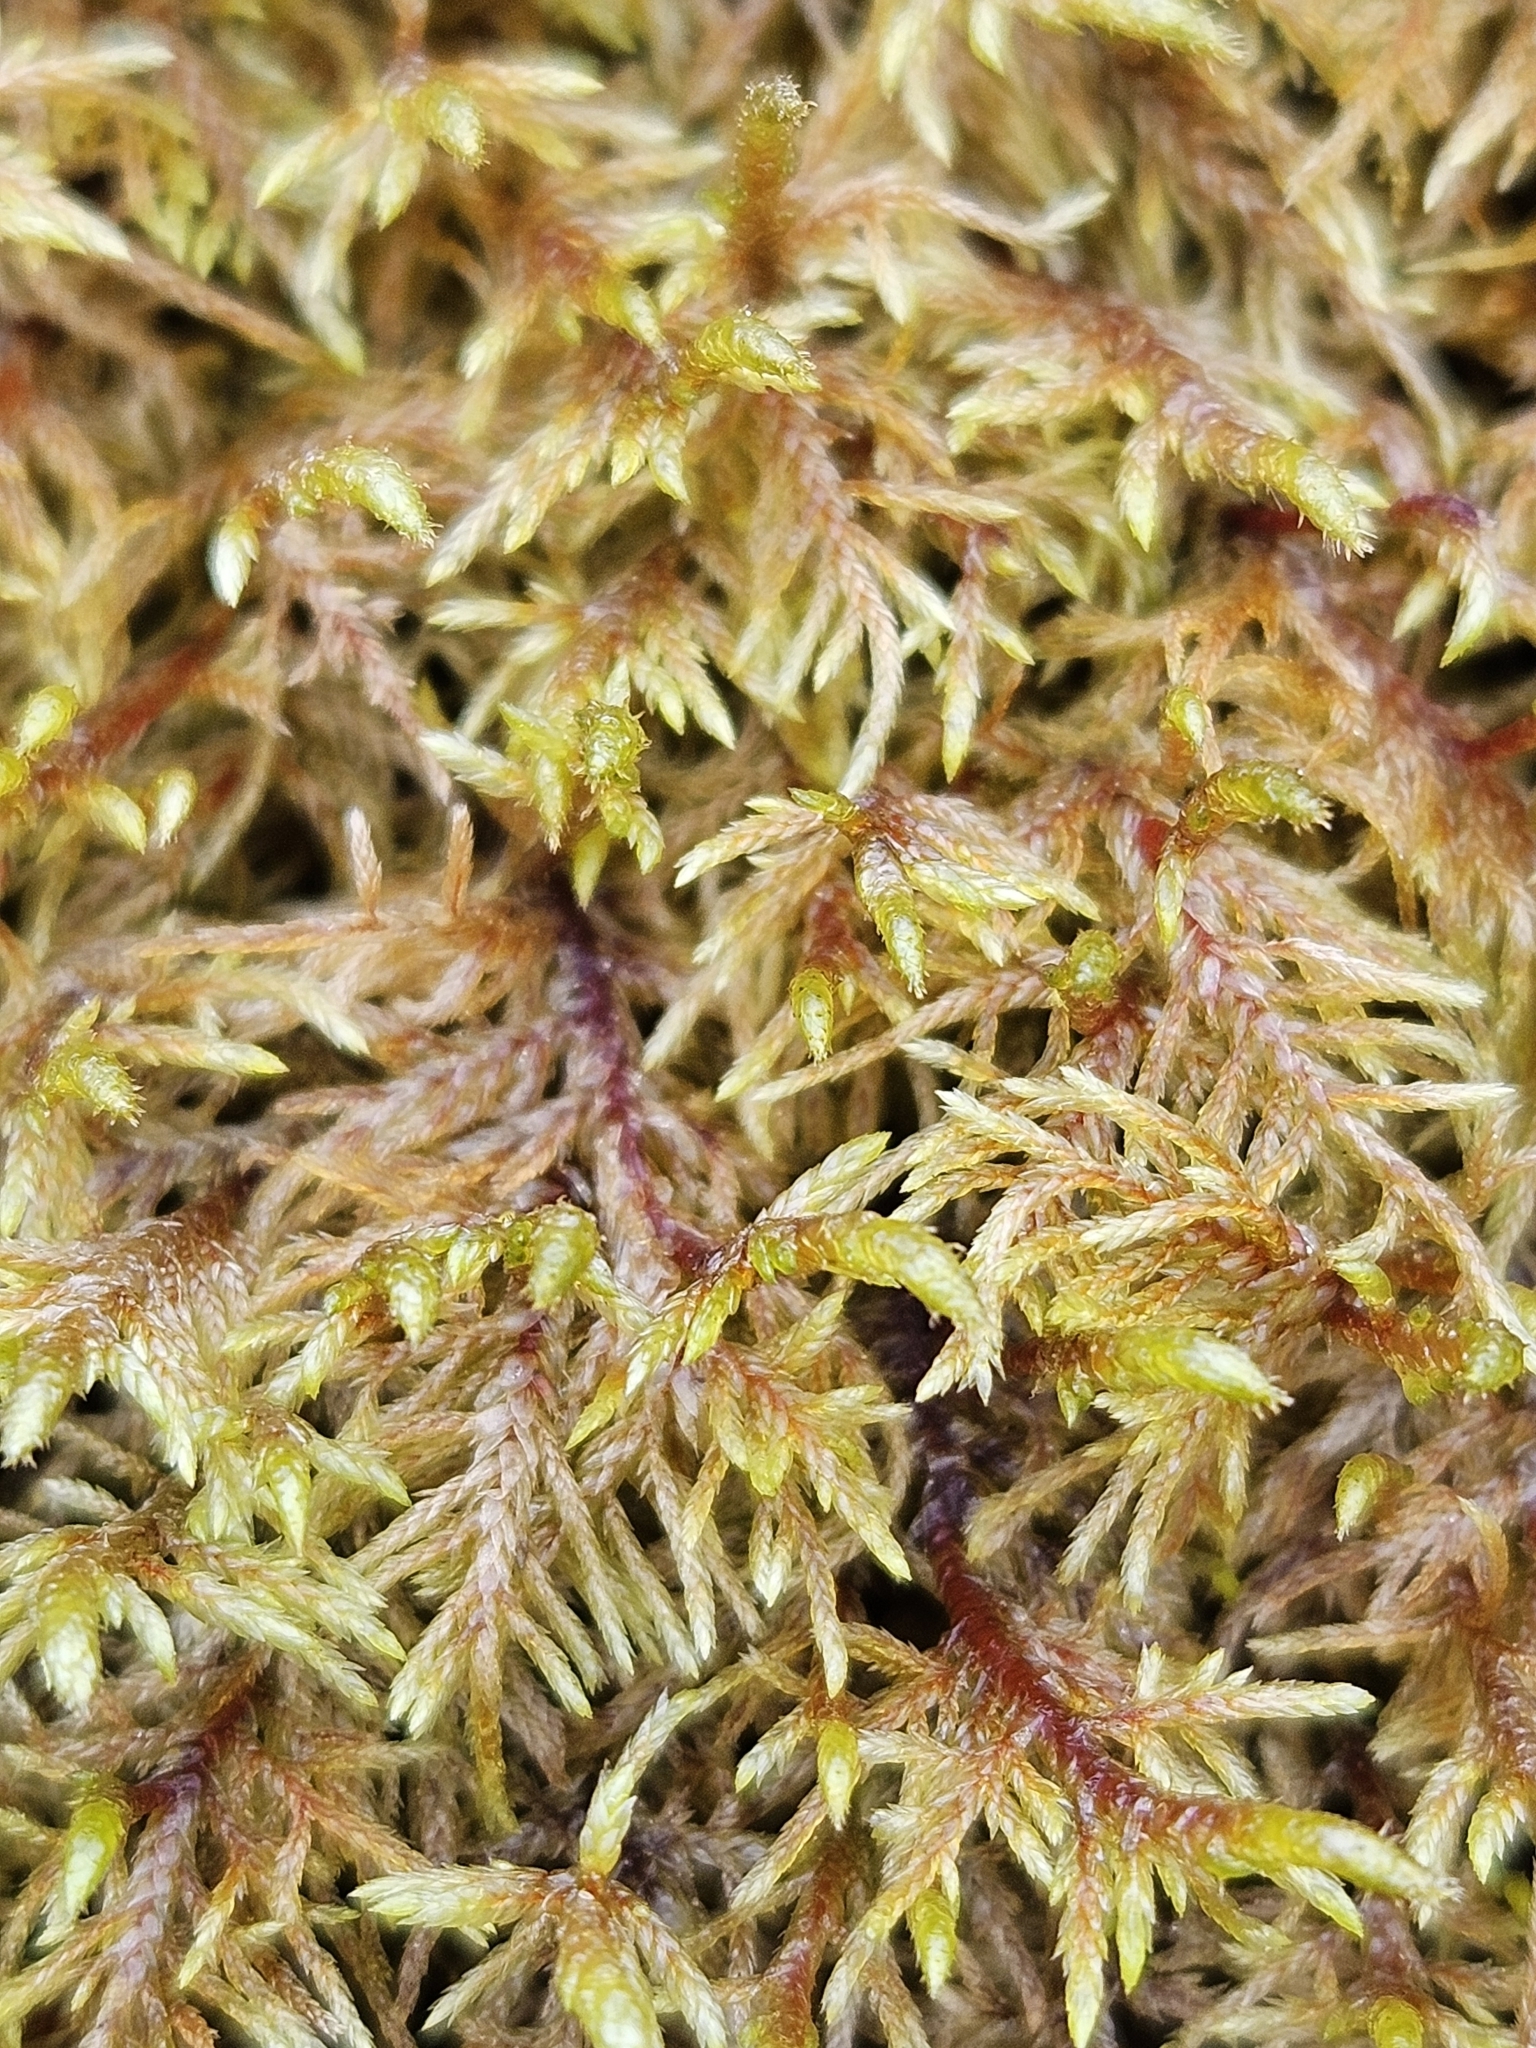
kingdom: Plantae
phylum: Bryophyta
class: Bryopsida
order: Hypnales
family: Hylocomiaceae
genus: Hylocomium
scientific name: Hylocomium splendens
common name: Stairstep moss
